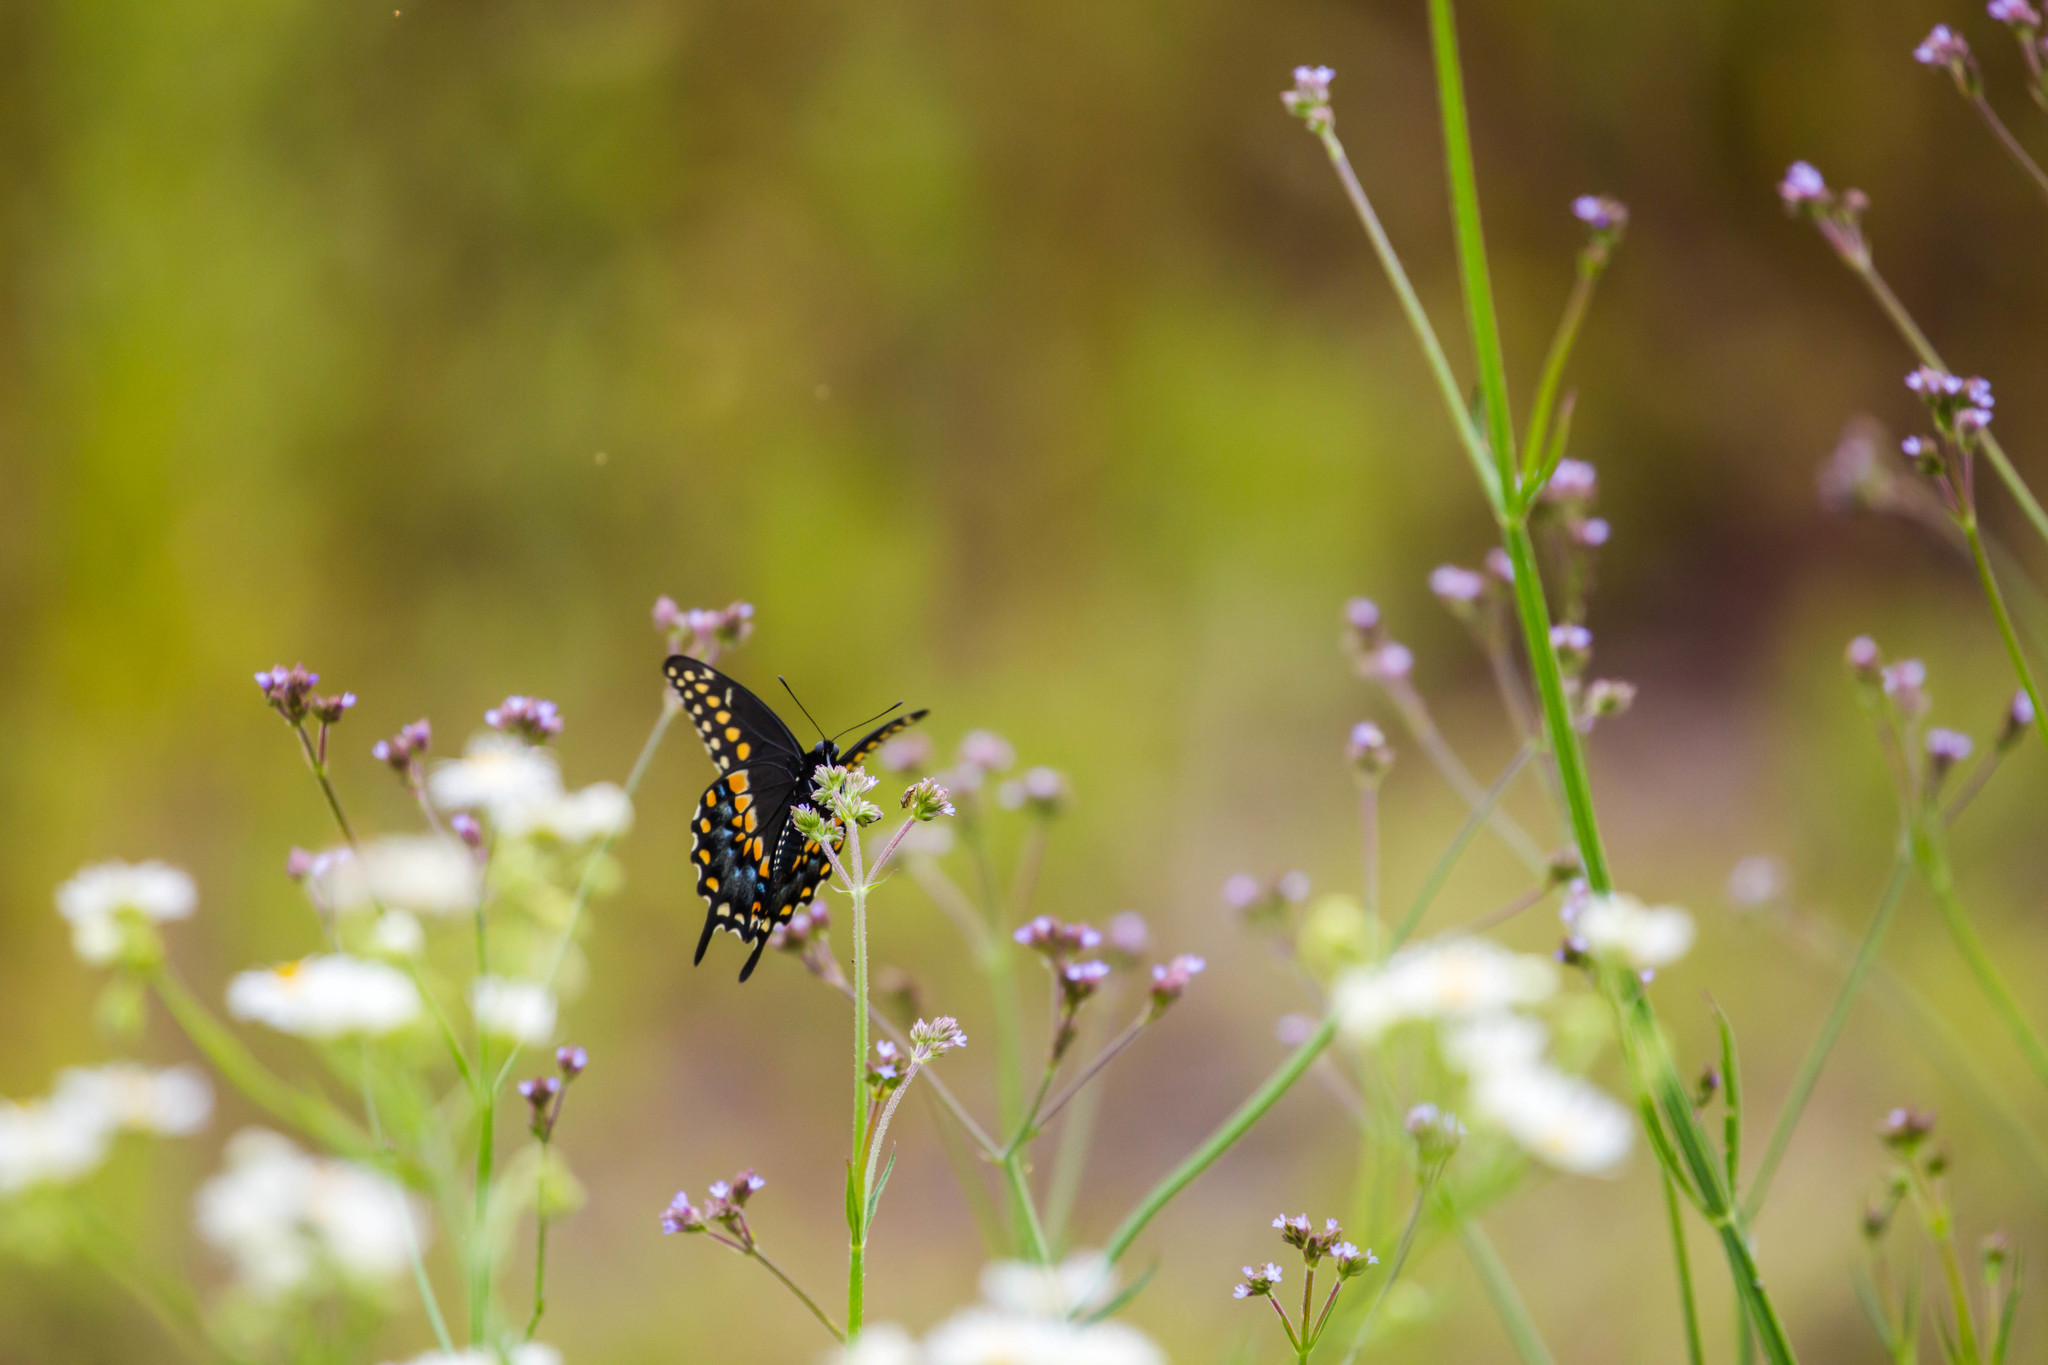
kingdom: Animalia
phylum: Arthropoda
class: Insecta
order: Lepidoptera
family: Papilionidae
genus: Papilio
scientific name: Papilio polyxenes
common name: Black swallowtail
